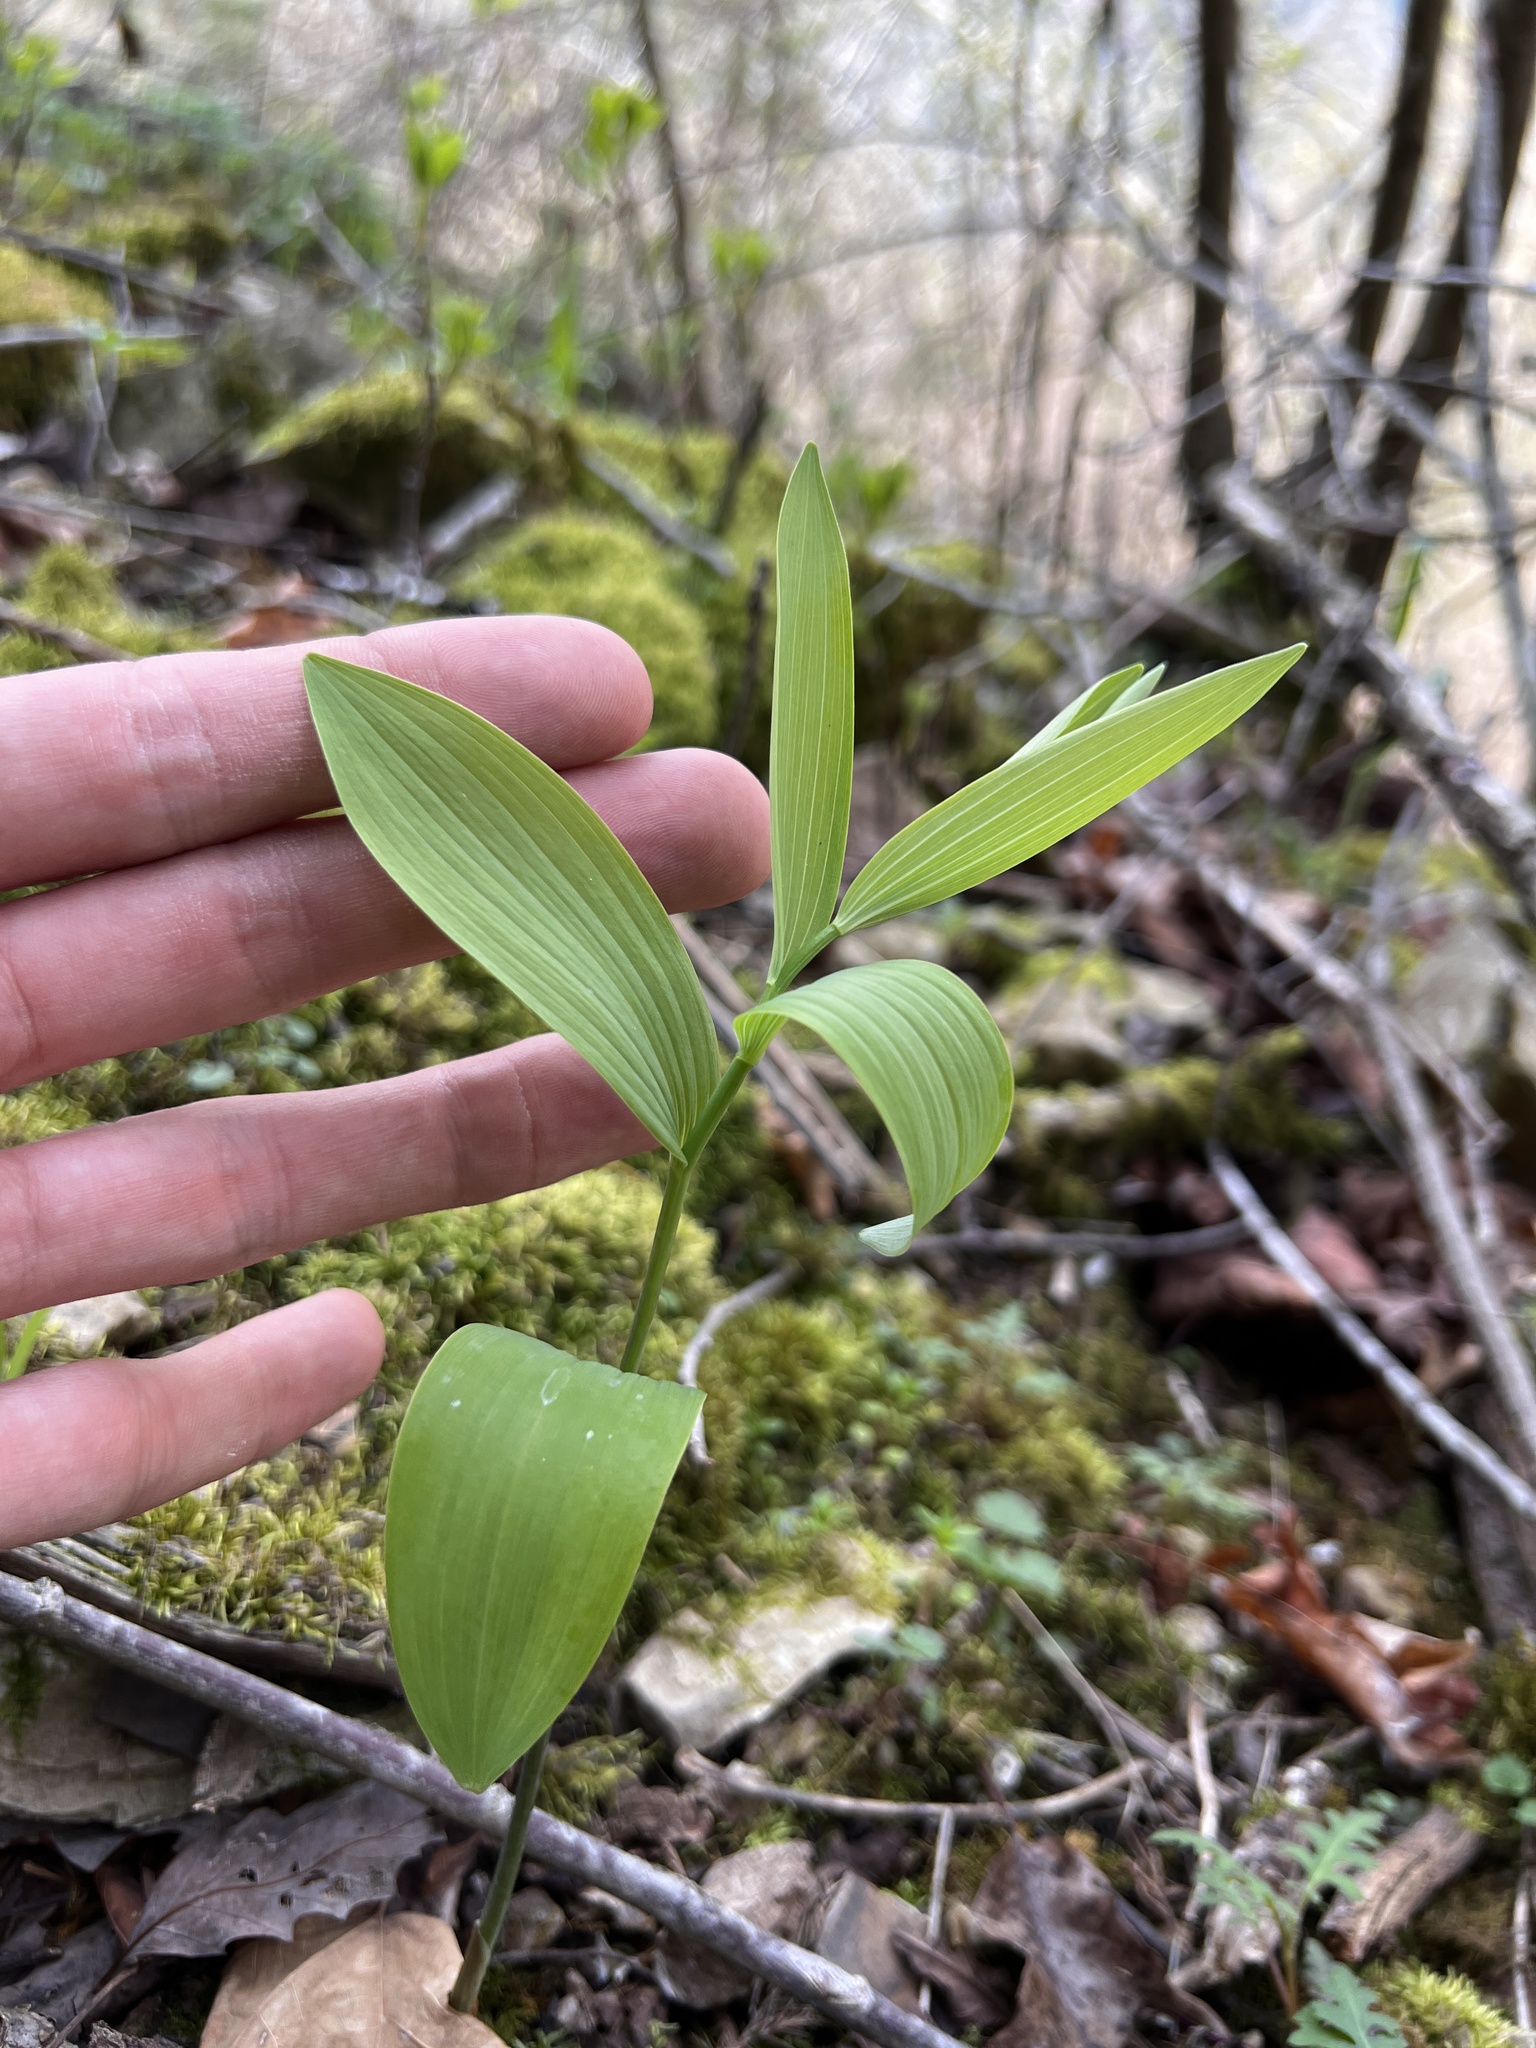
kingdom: Plantae
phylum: Tracheophyta
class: Liliopsida
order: Asparagales
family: Asparagaceae
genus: Polygonatum
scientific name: Polygonatum biflorum
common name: American solomon's-seal
